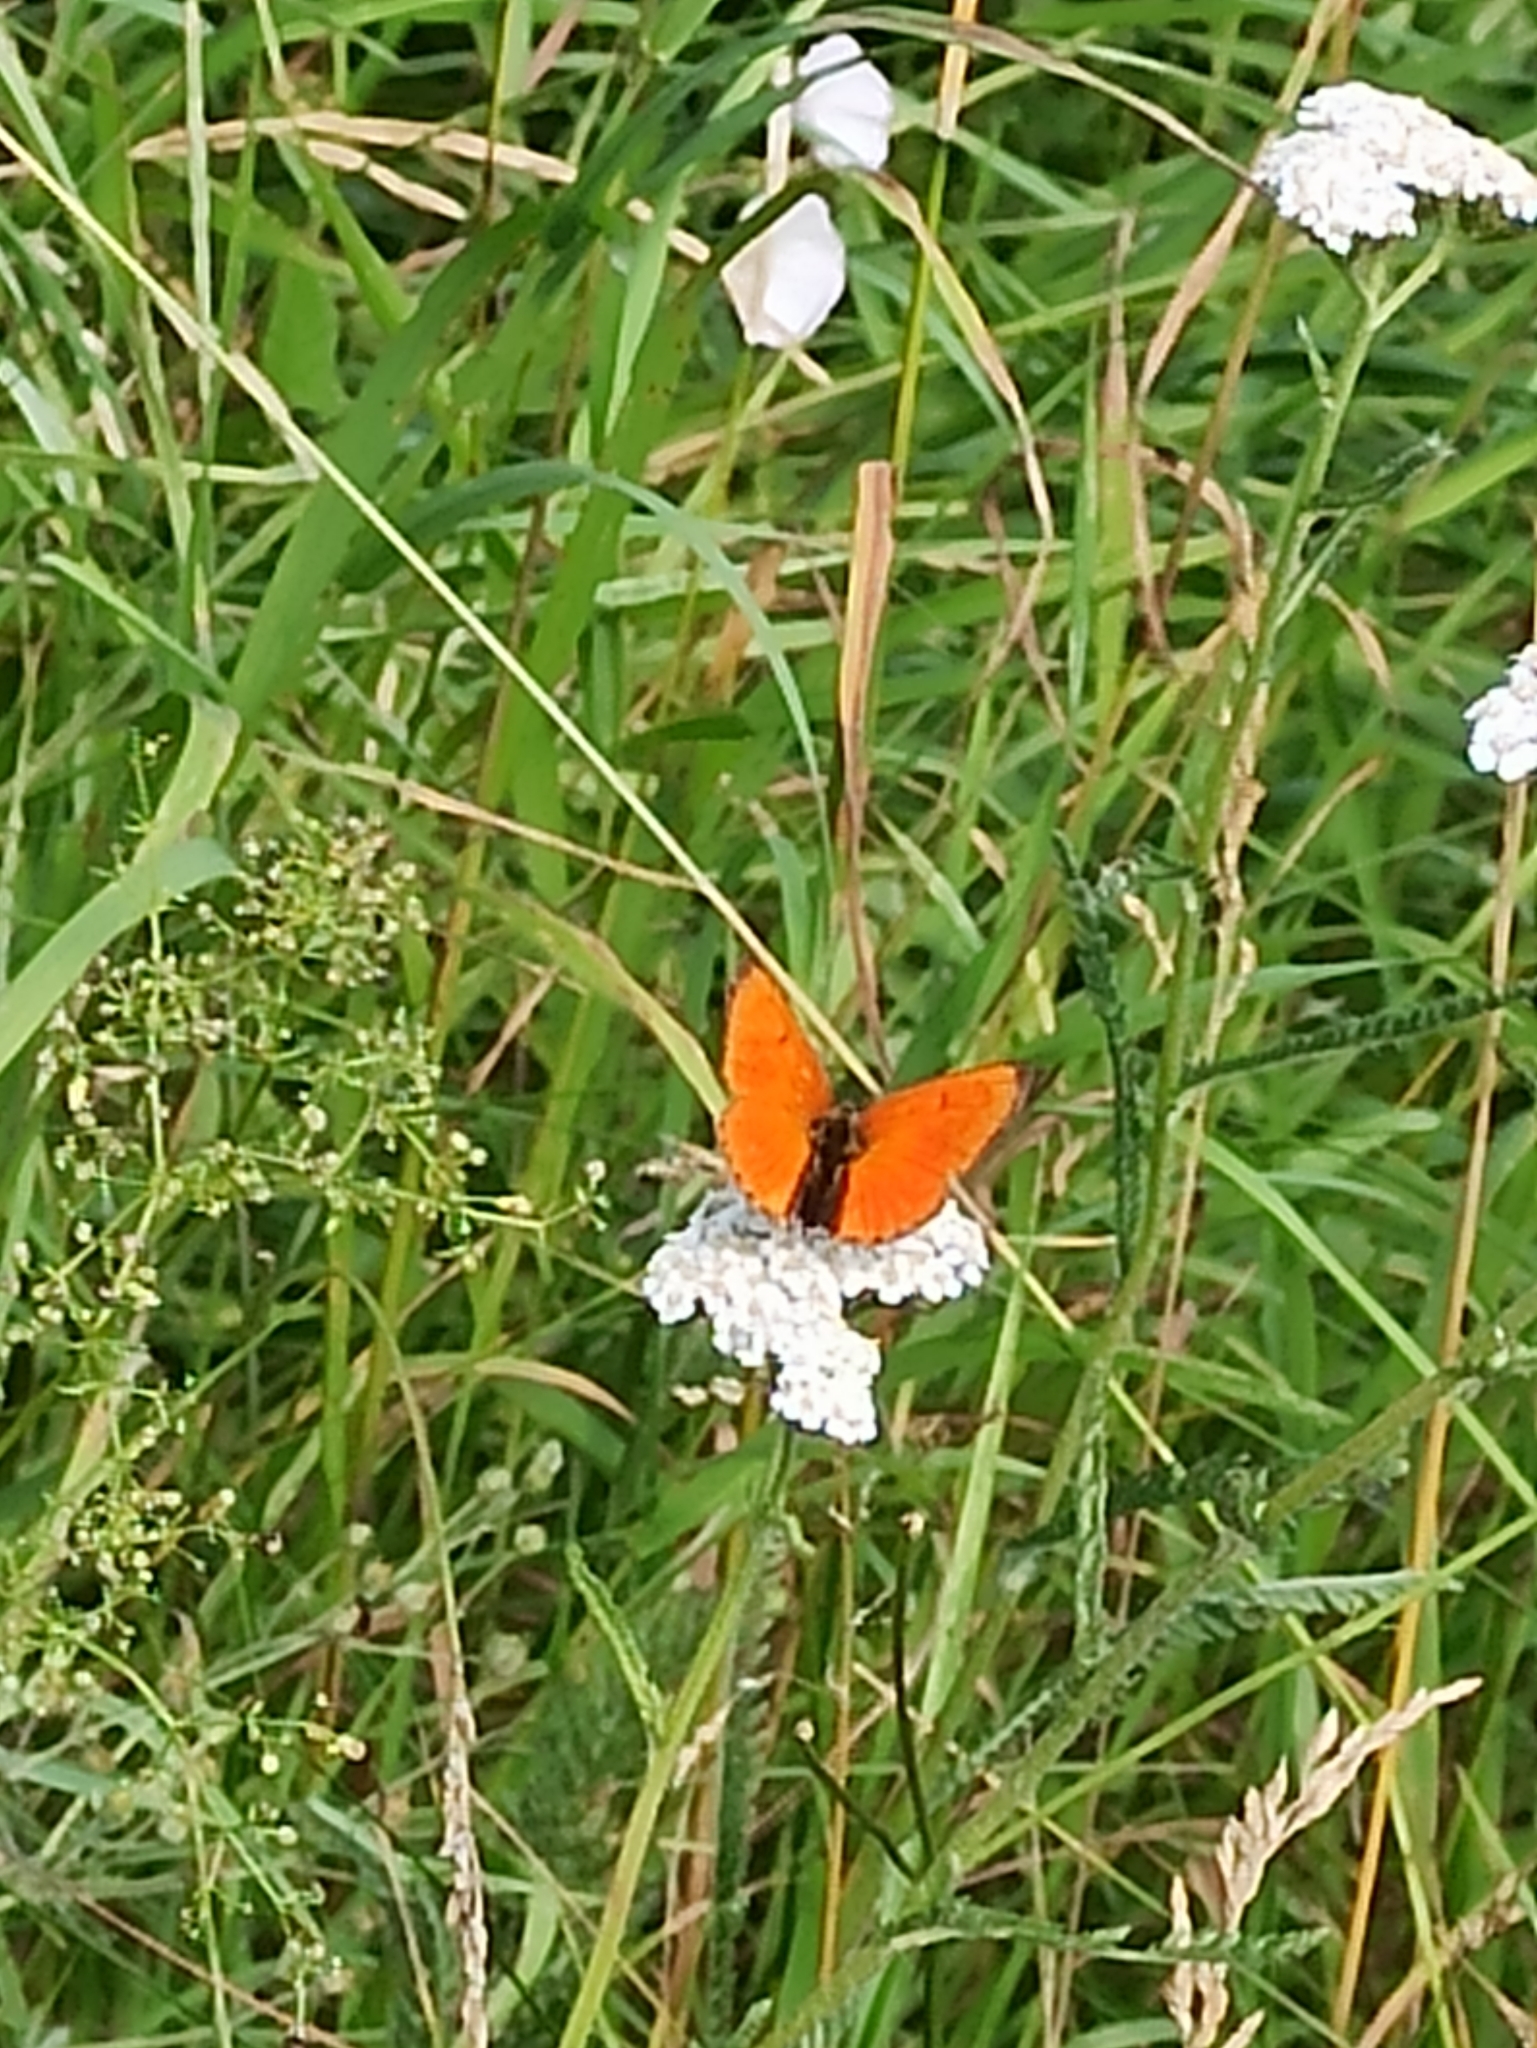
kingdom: Animalia
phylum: Arthropoda
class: Insecta
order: Lepidoptera
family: Lycaenidae
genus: Lycaena
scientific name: Lycaena virgaureae
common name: Scarce copper
